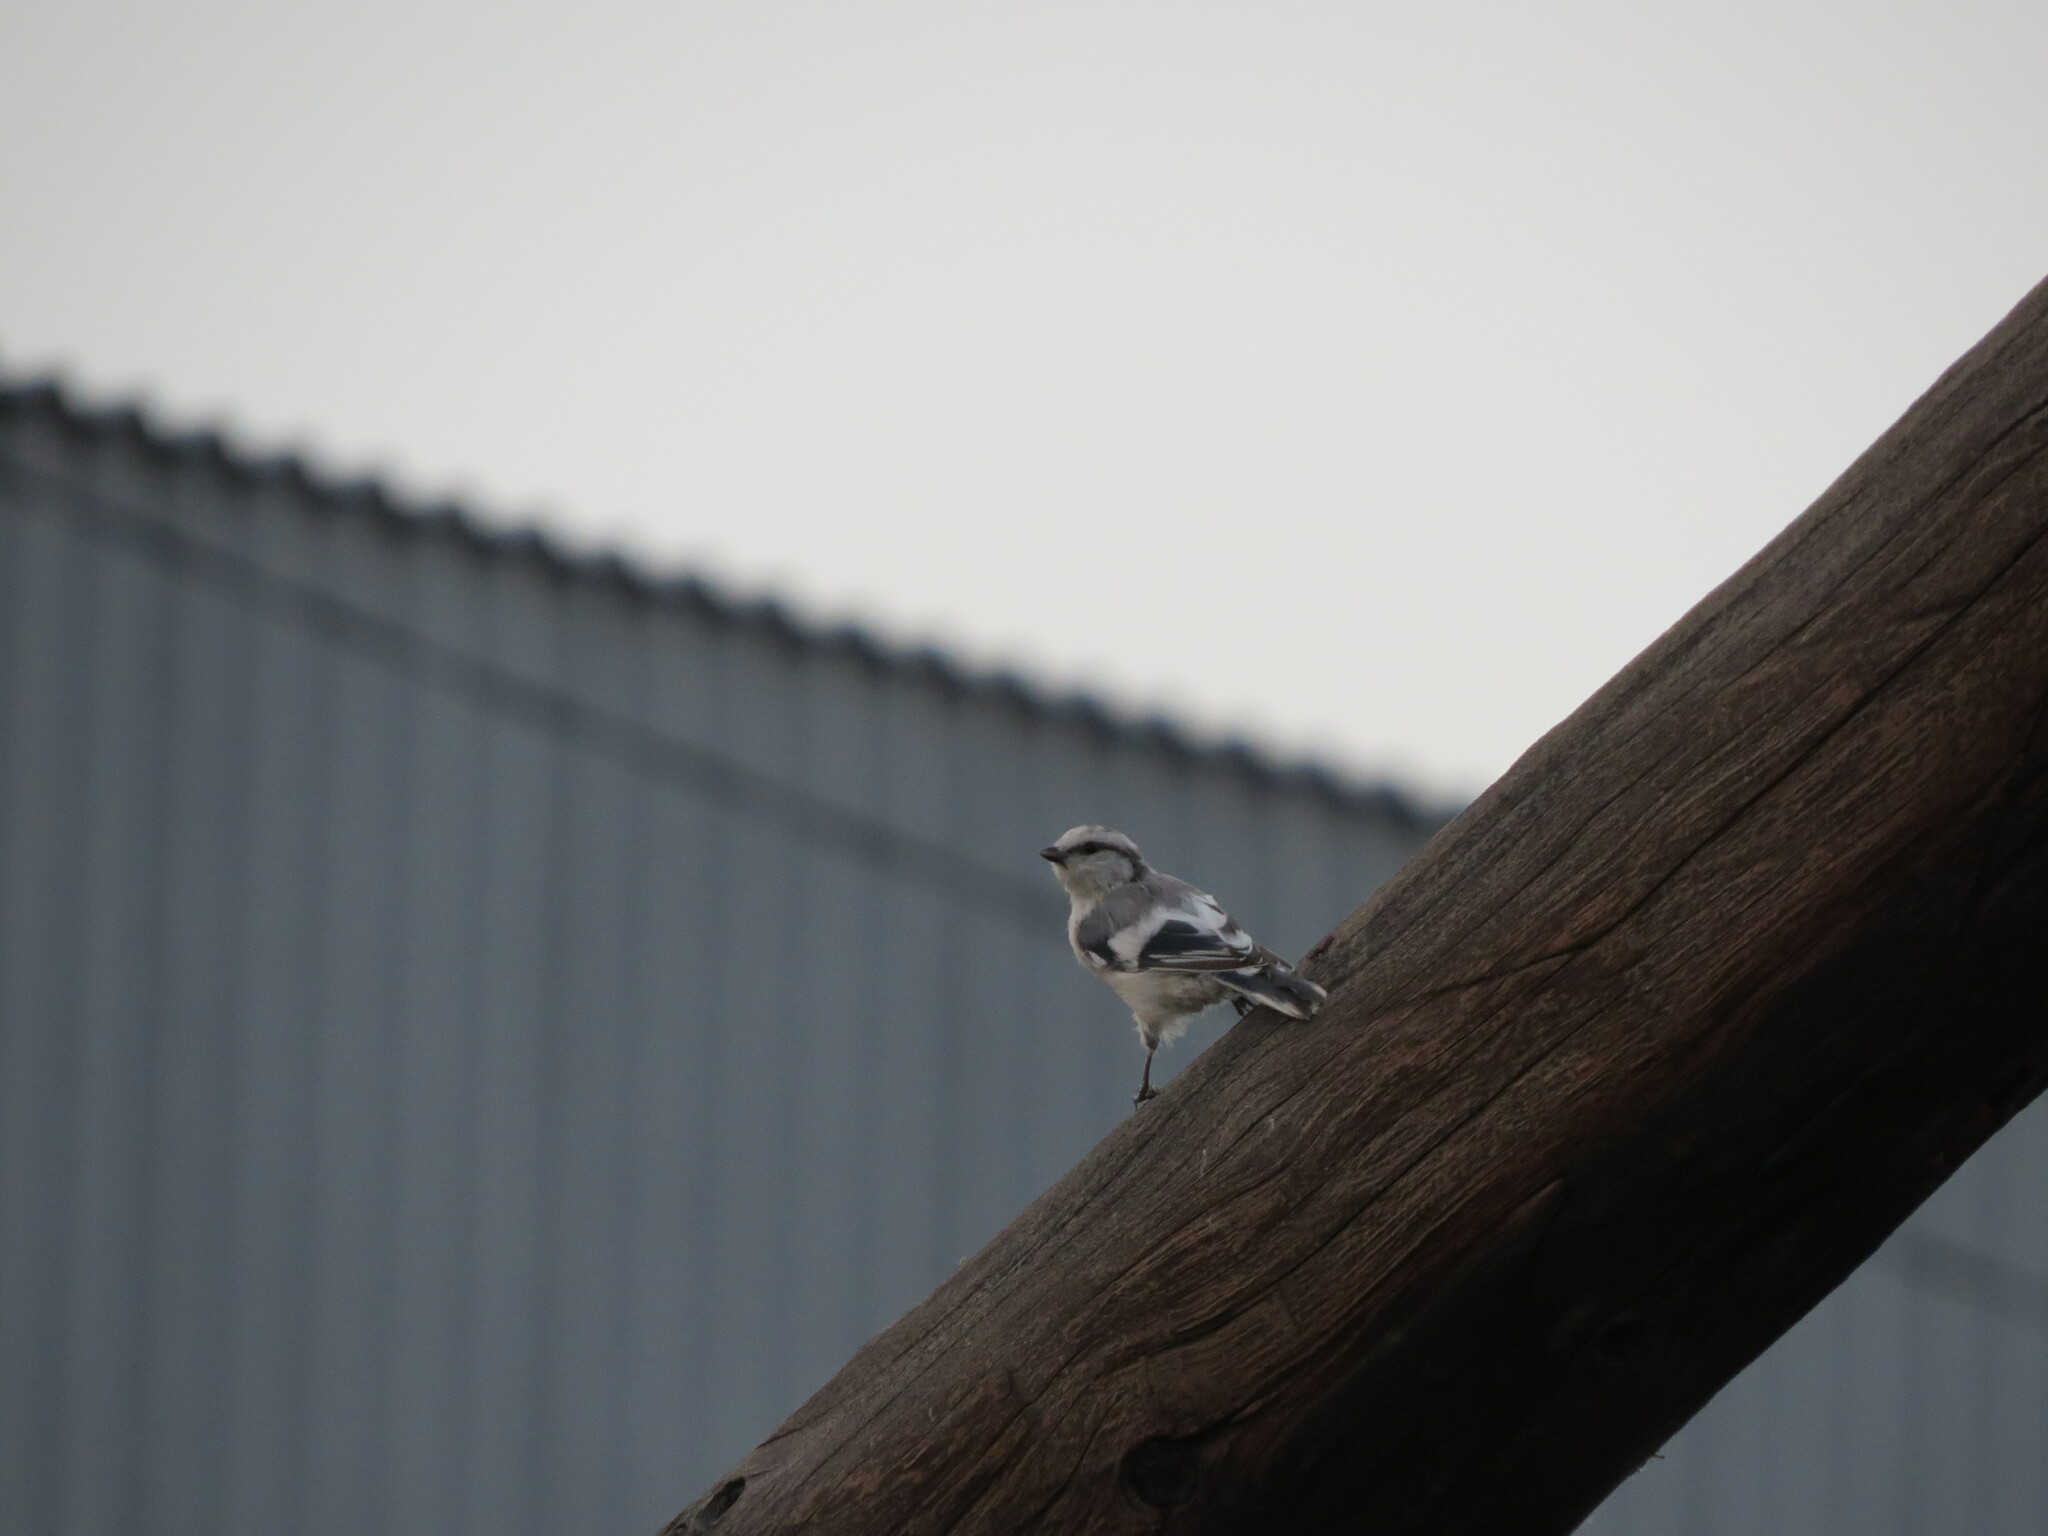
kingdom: Animalia
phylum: Chordata
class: Aves
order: Passeriformes
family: Paridae
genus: Cyanistes
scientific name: Cyanistes cyanus
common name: Azure tit
